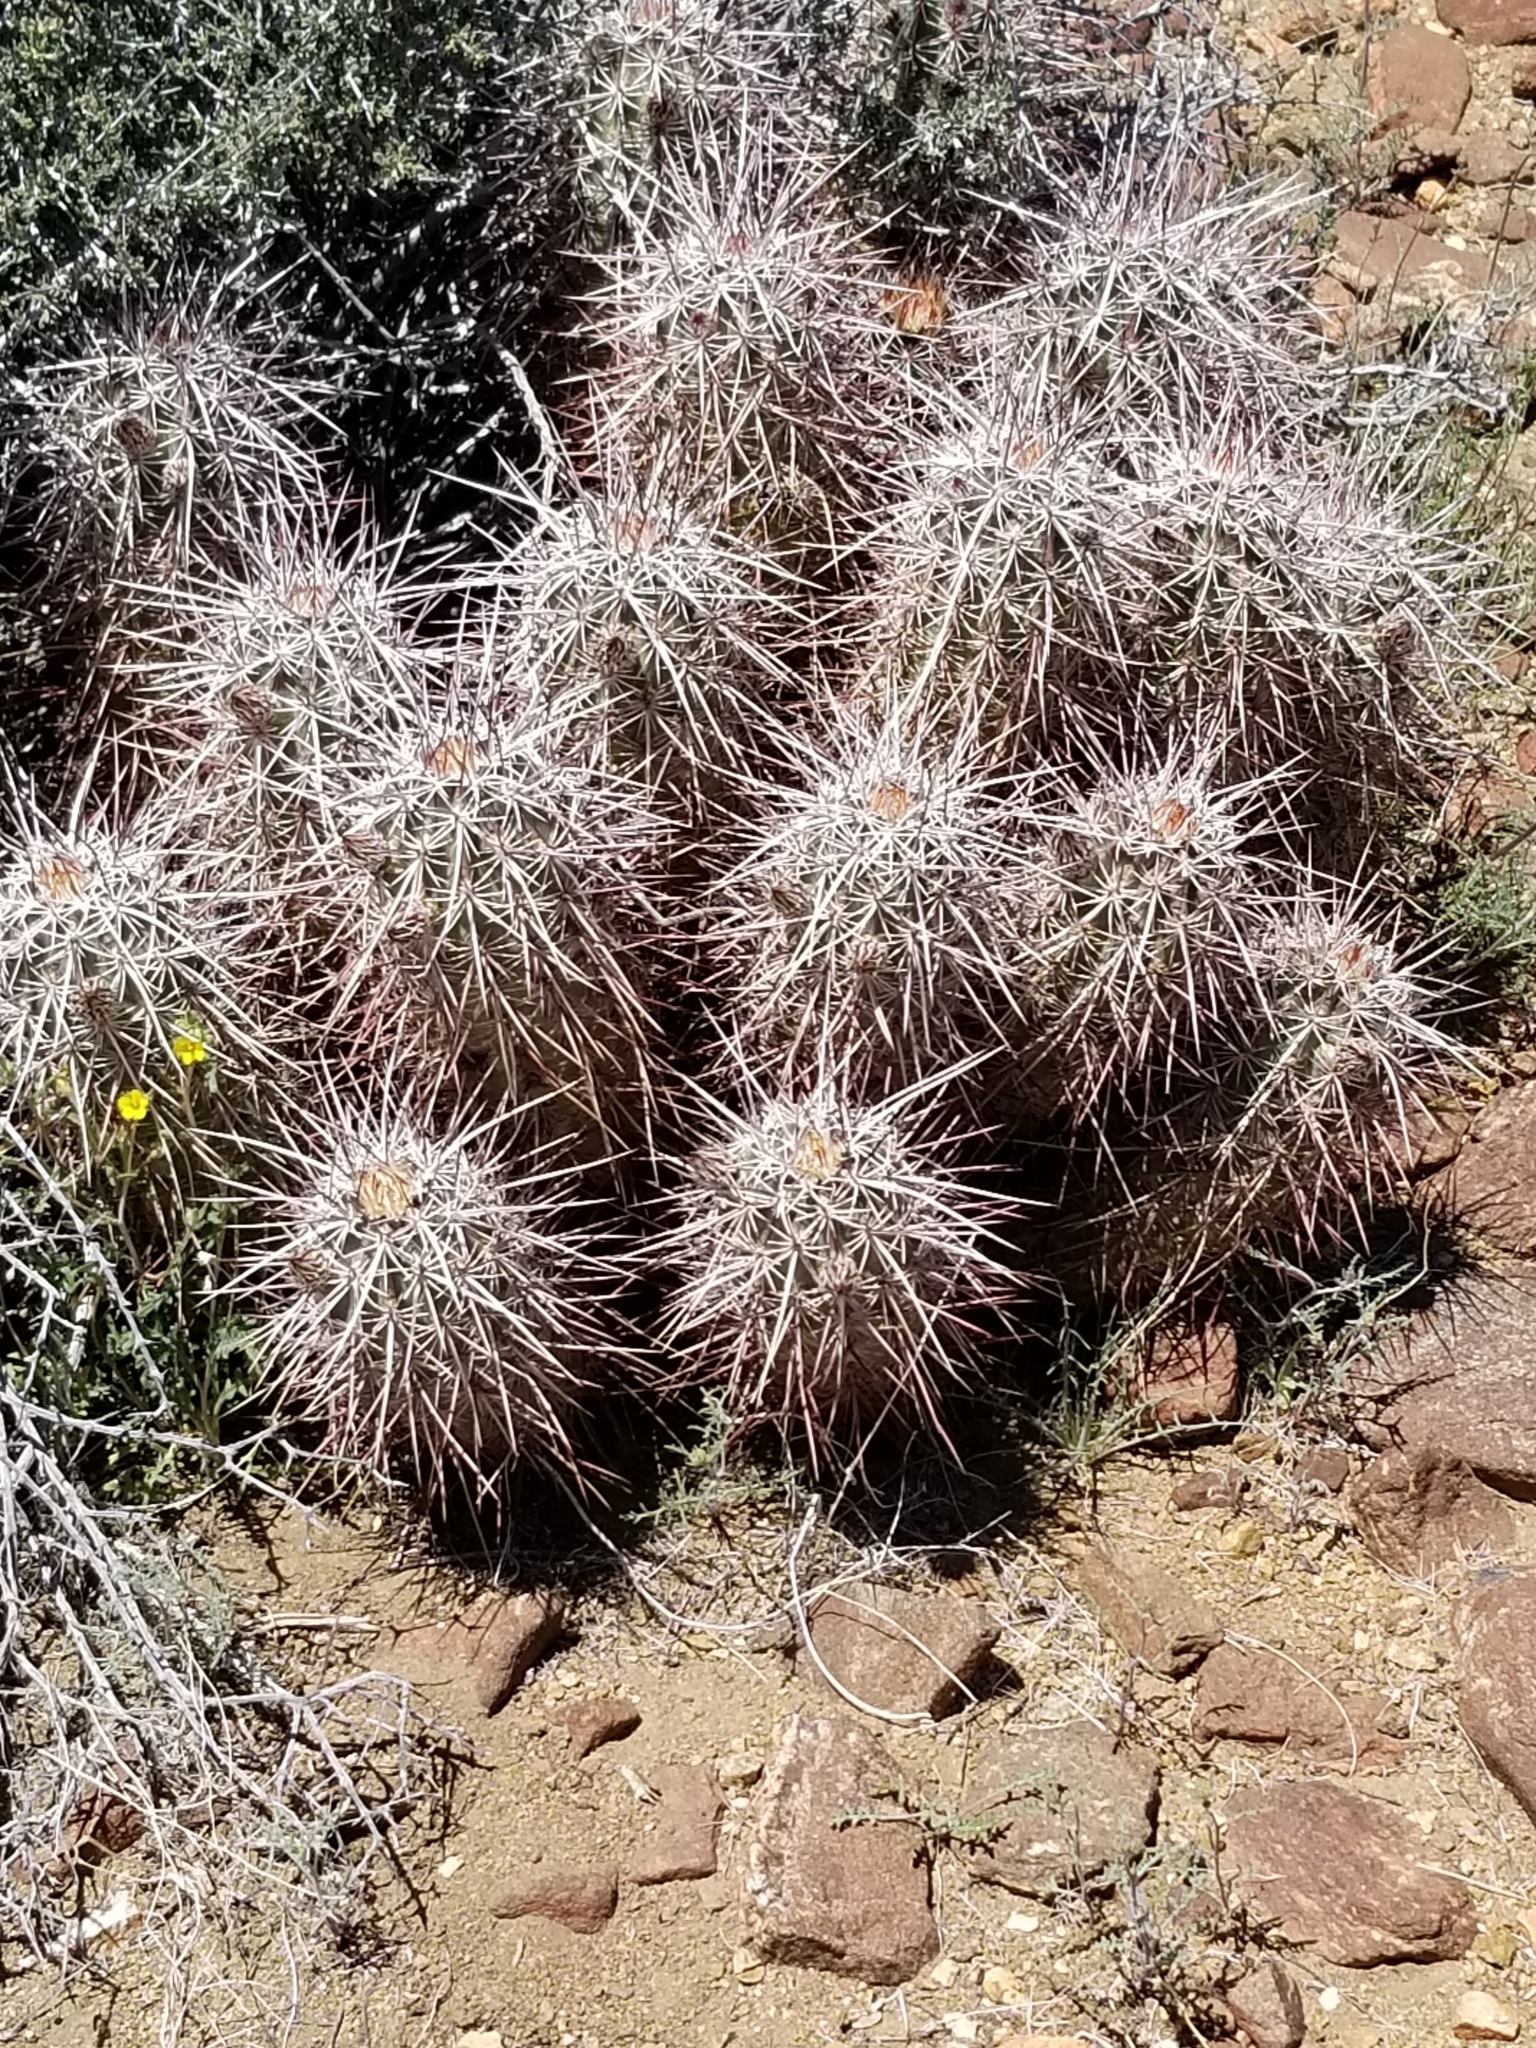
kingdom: Plantae
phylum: Tracheophyta
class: Magnoliopsida
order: Caryophyllales
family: Cactaceae
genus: Echinocereus
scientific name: Echinocereus engelmannii
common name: Engelmann's hedgehog cactus
